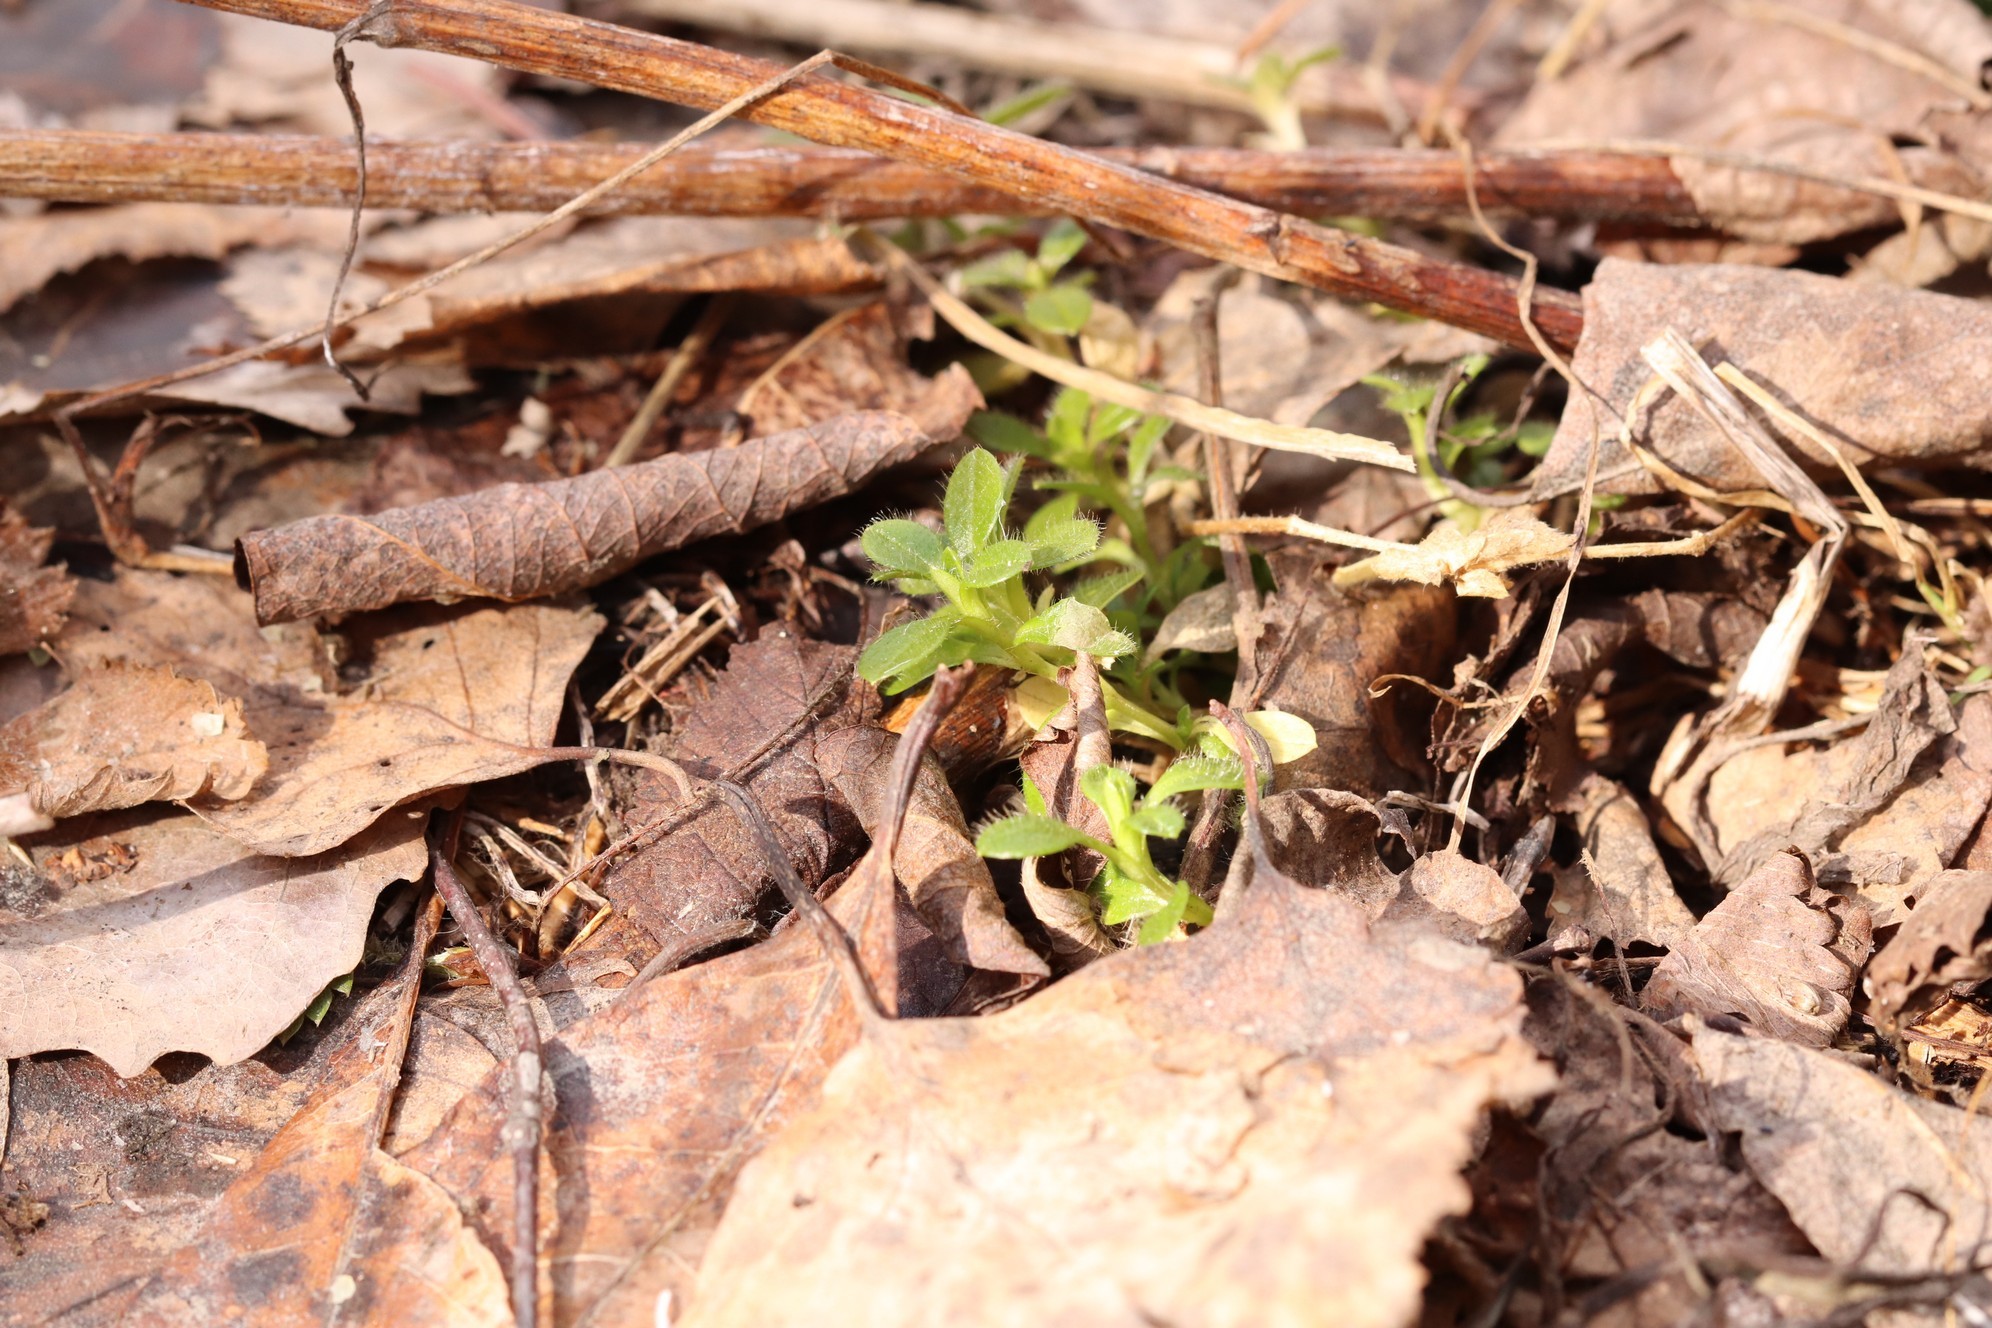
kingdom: Plantae
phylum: Tracheophyta
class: Magnoliopsida
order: Caryophyllales
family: Caryophyllaceae
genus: Cerastium
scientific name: Cerastium holosteoides
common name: Big chickweed
